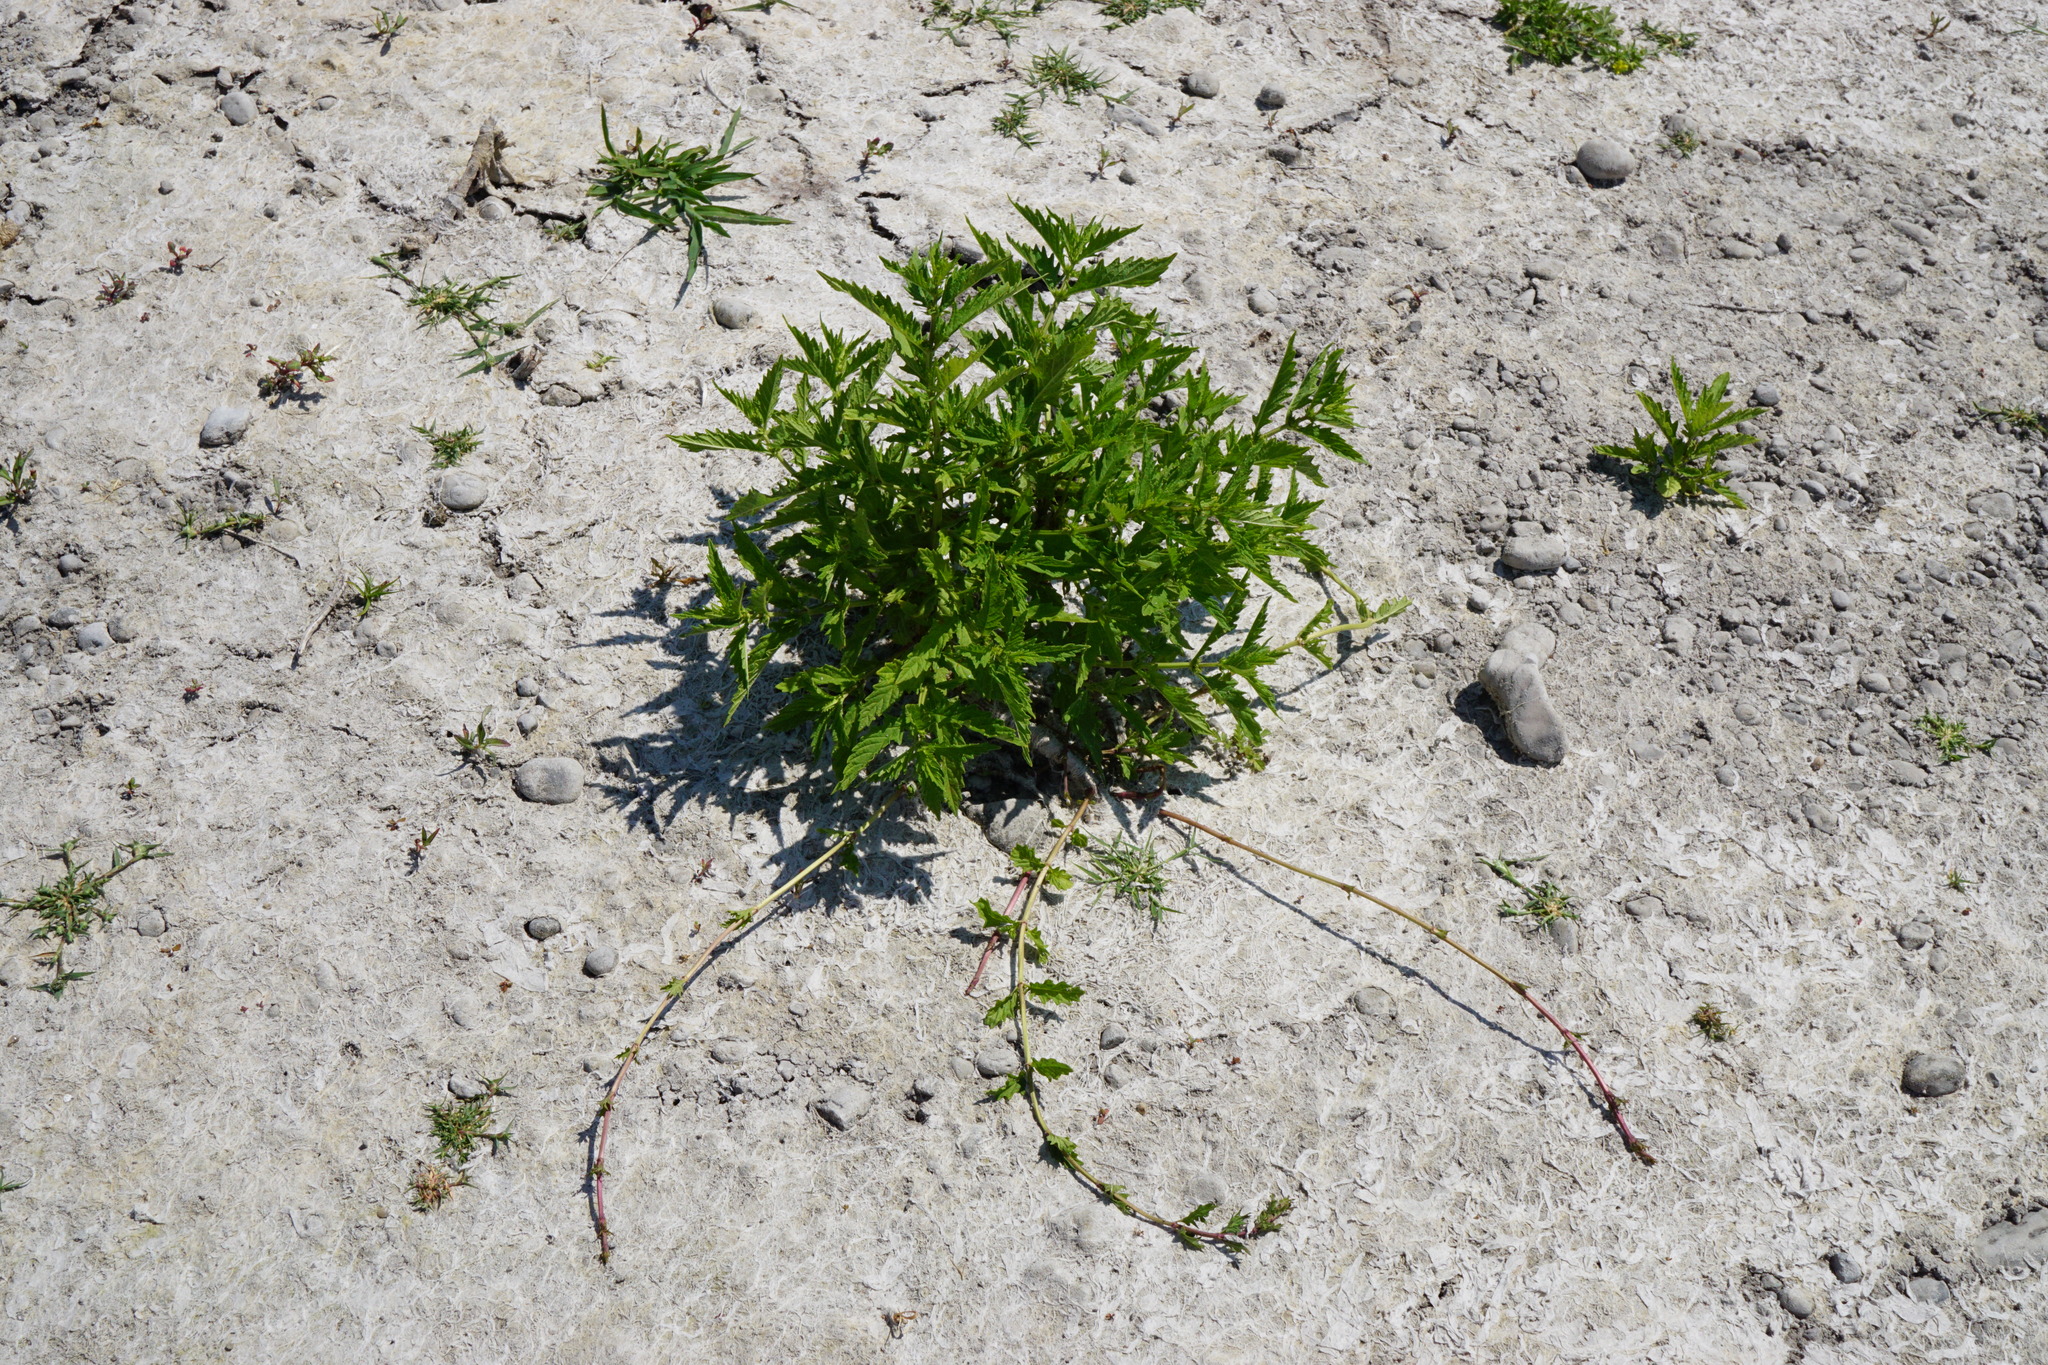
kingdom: Plantae
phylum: Tracheophyta
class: Magnoliopsida
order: Lamiales
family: Lamiaceae
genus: Lycopus
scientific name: Lycopus europaeus
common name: European bugleweed
